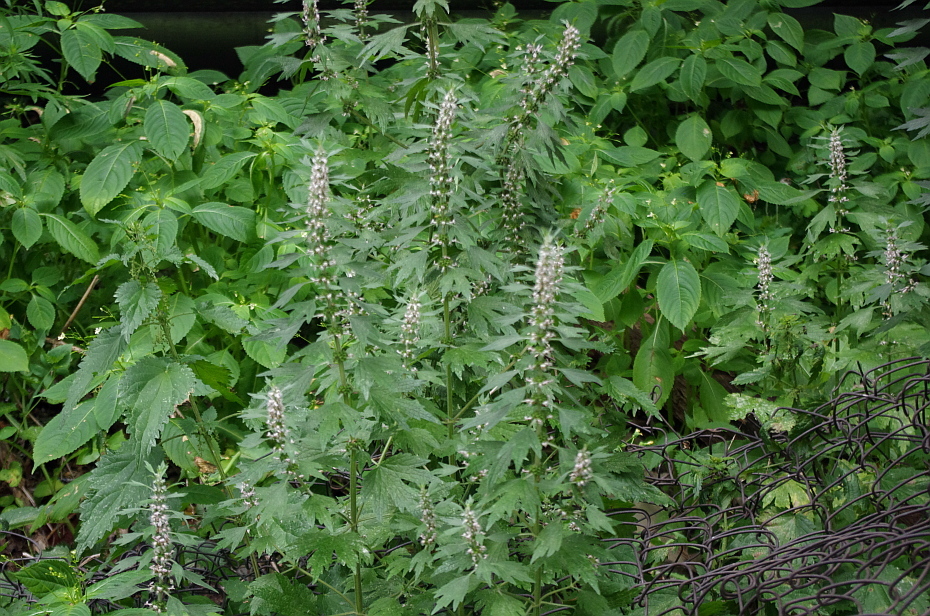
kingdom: Plantae
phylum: Tracheophyta
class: Magnoliopsida
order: Lamiales
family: Lamiaceae
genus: Leonurus
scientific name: Leonurus quinquelobatus
